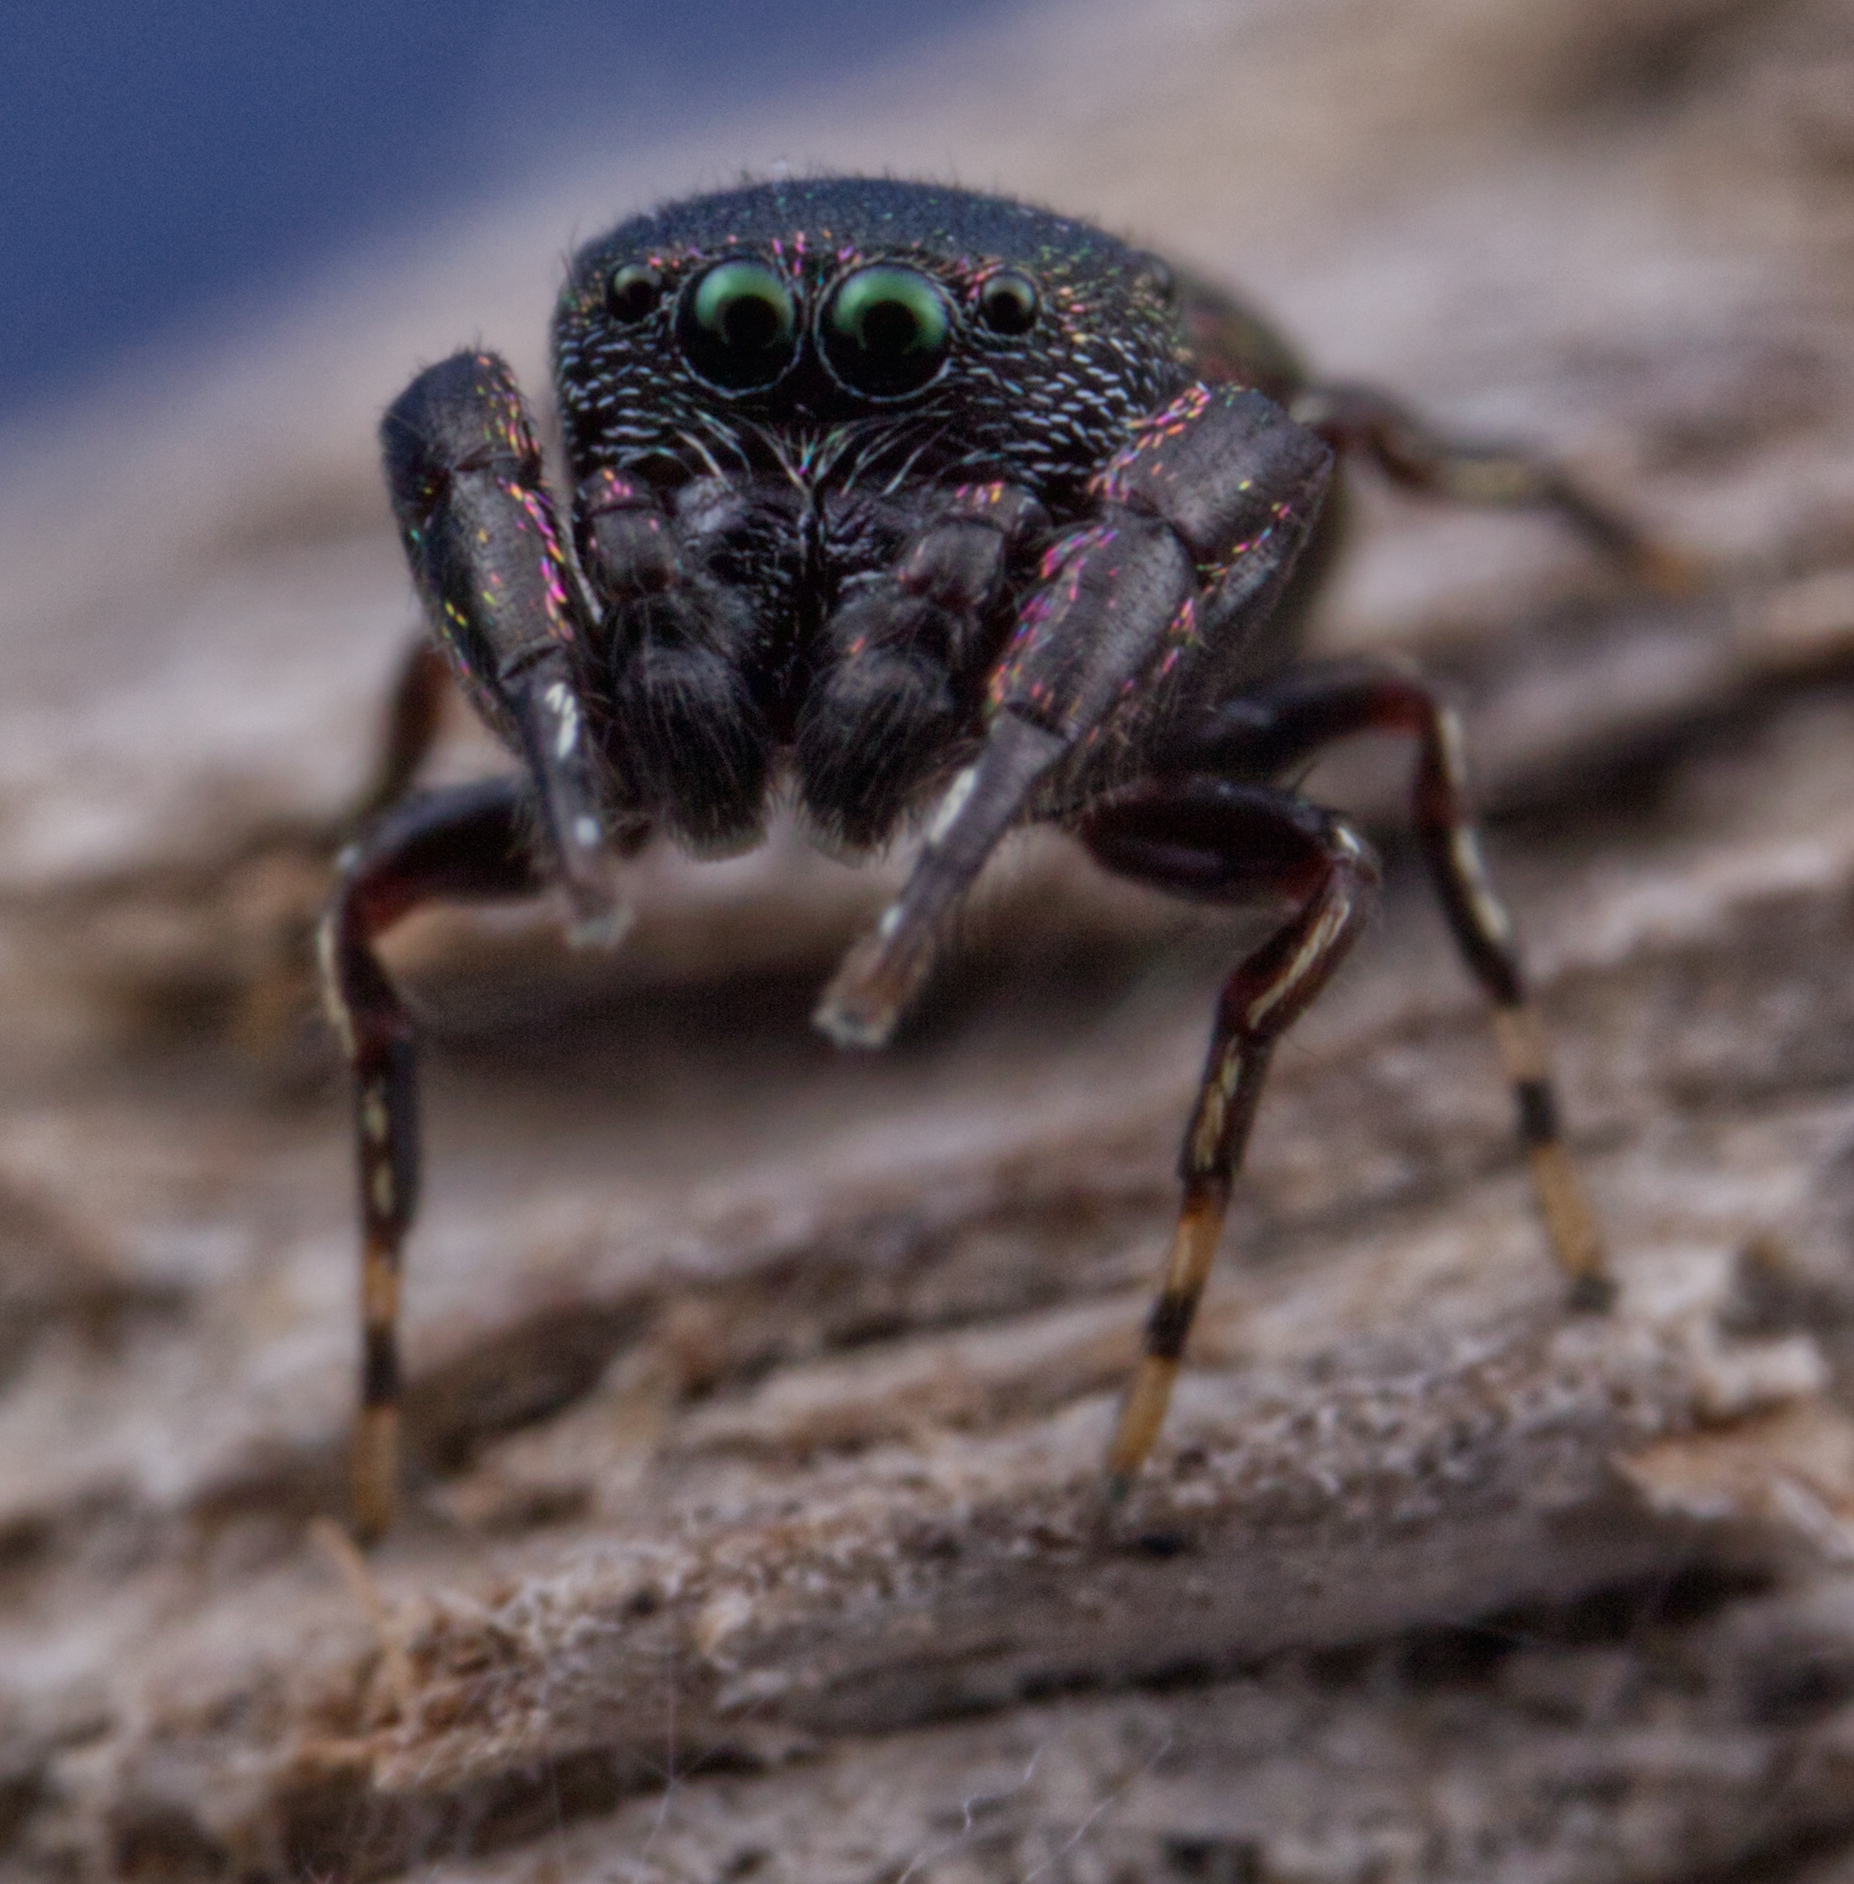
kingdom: Animalia
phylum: Arthropoda
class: Arachnida
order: Araneae
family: Salticidae
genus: Sassacus
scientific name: Sassacus cyaneus
